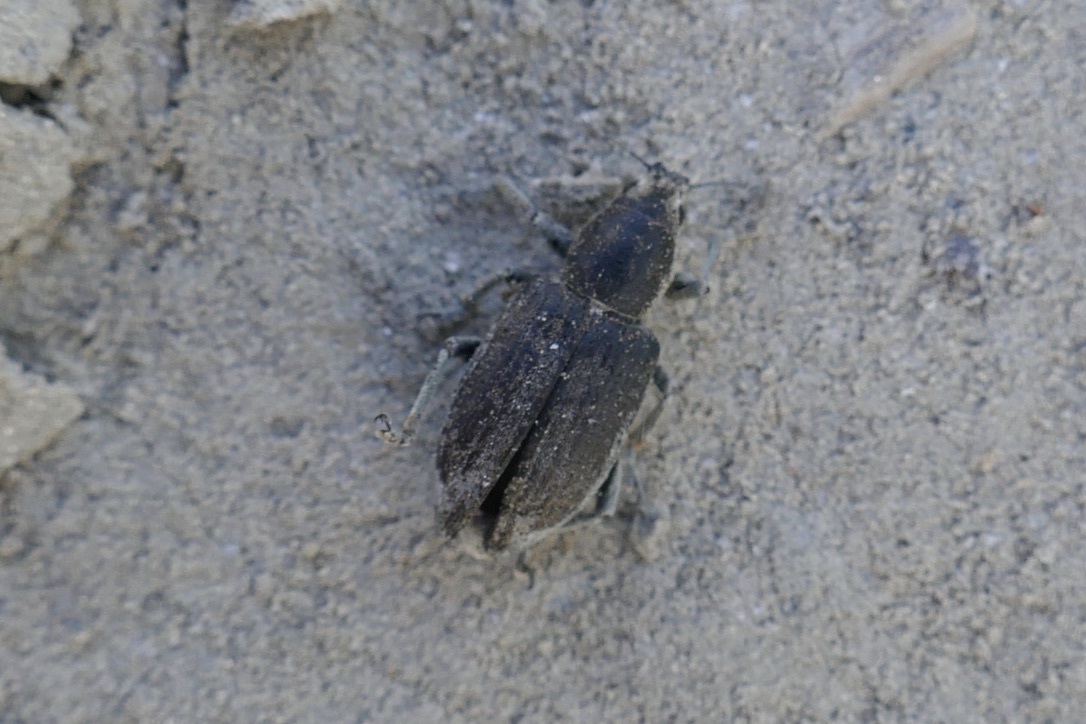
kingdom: Animalia
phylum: Arthropoda
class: Insecta
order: Coleoptera
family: Curculionidae
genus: Tanymecus
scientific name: Tanymecus palliatus
